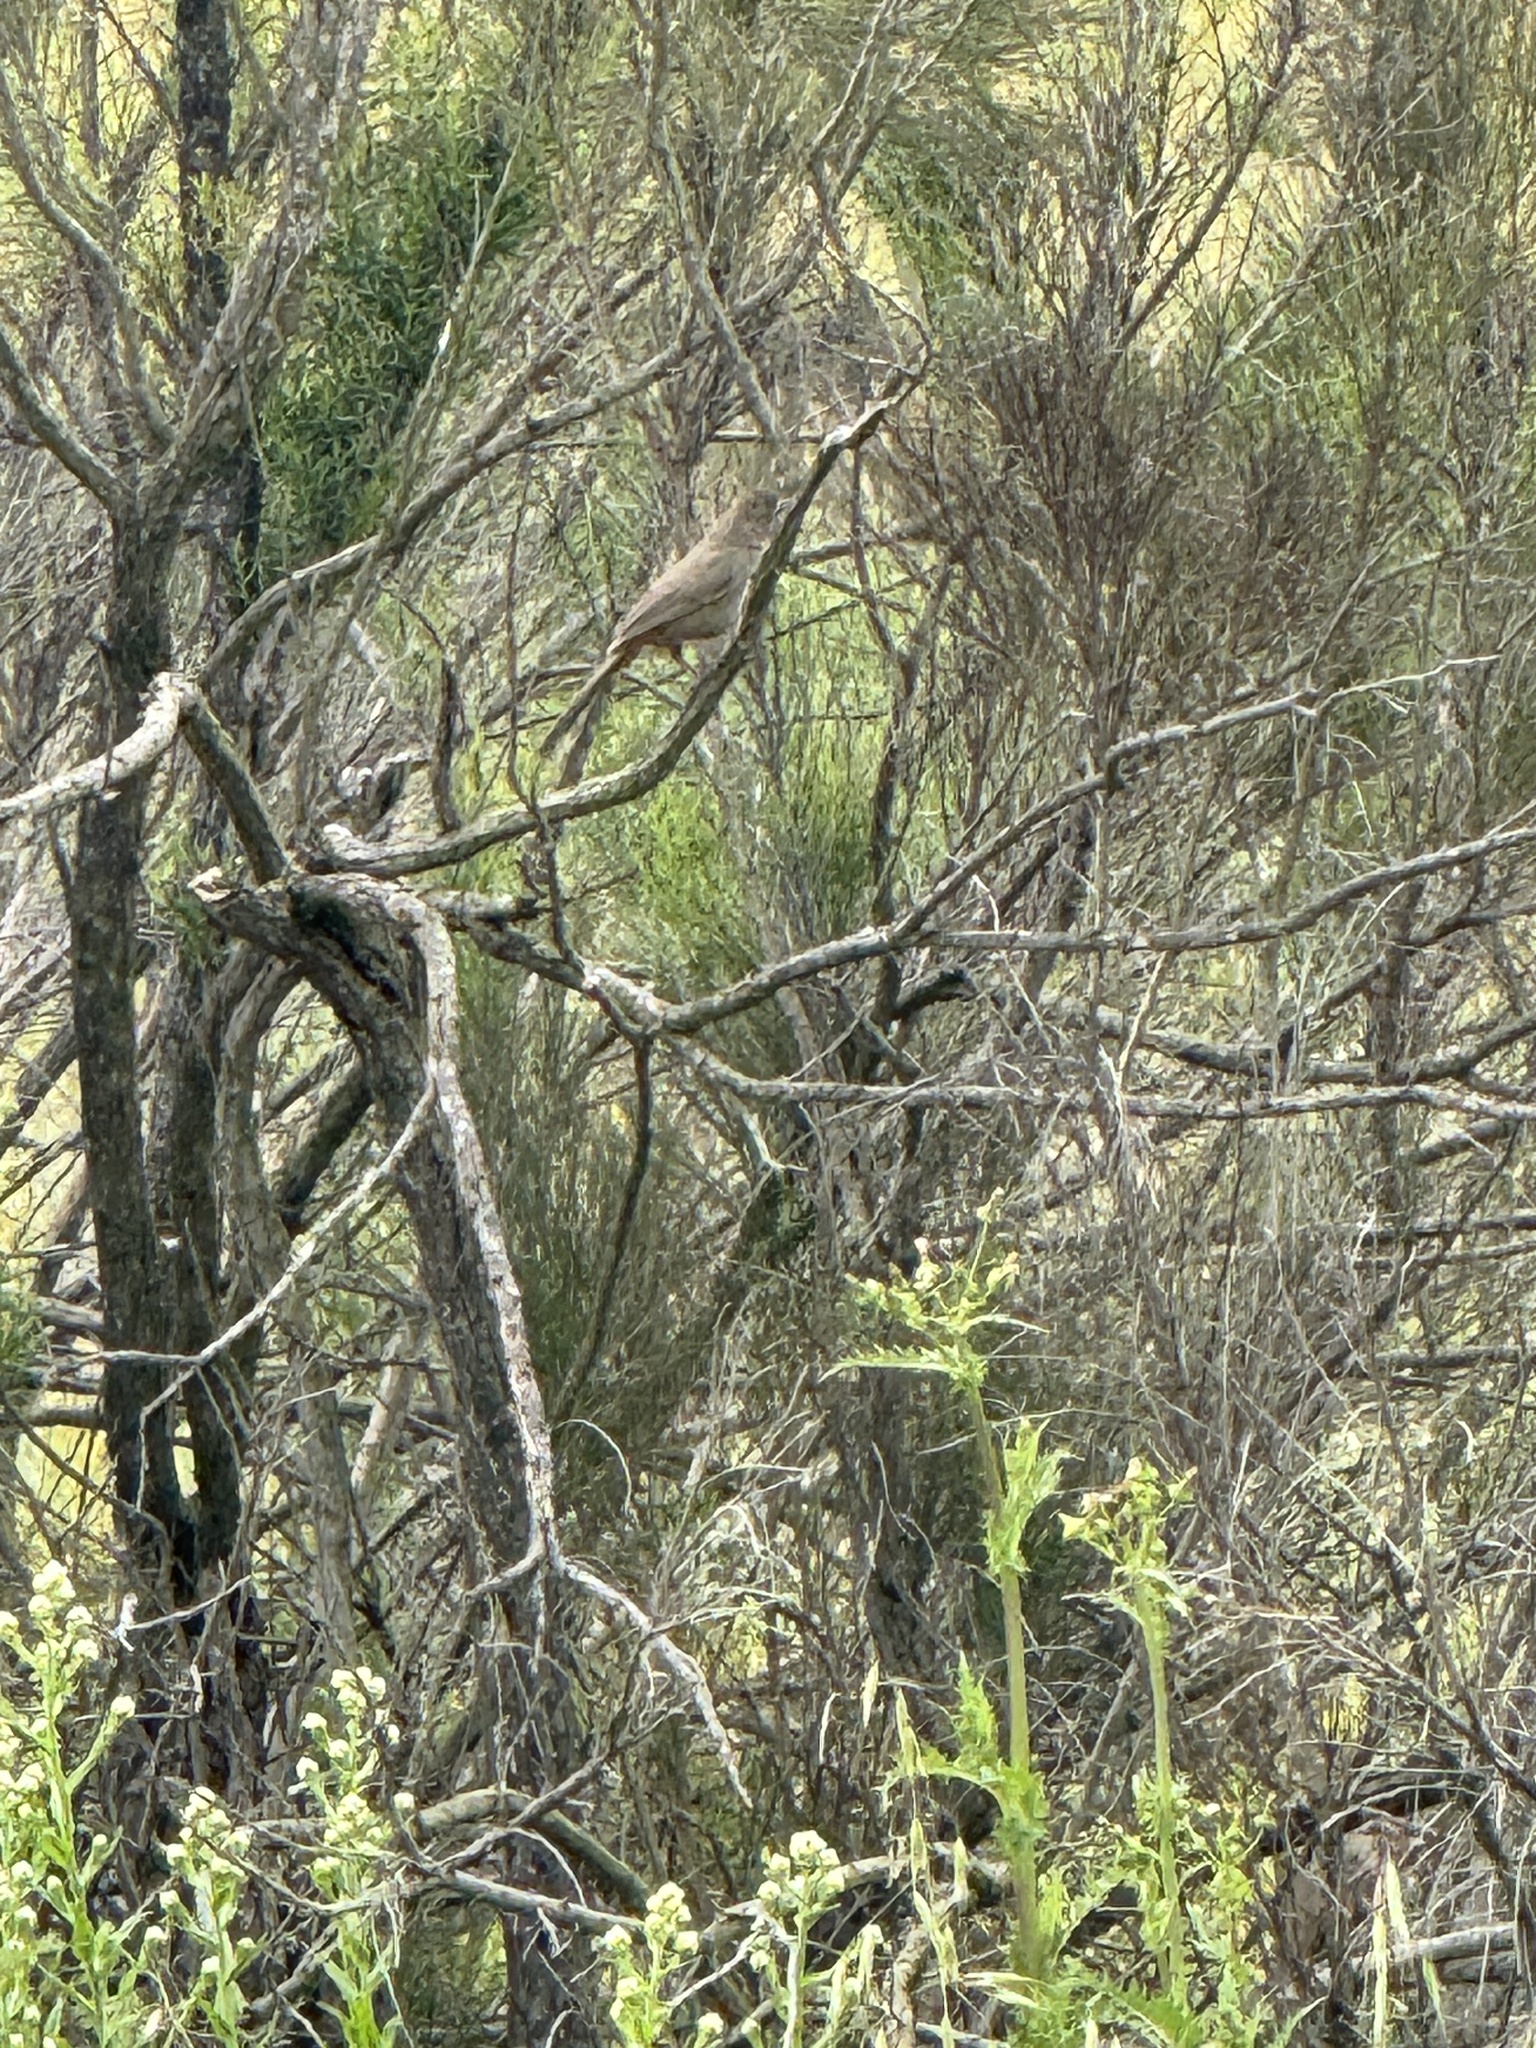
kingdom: Animalia
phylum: Chordata
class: Aves
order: Passeriformes
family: Passerellidae
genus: Melozone
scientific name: Melozone crissalis
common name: California towhee
